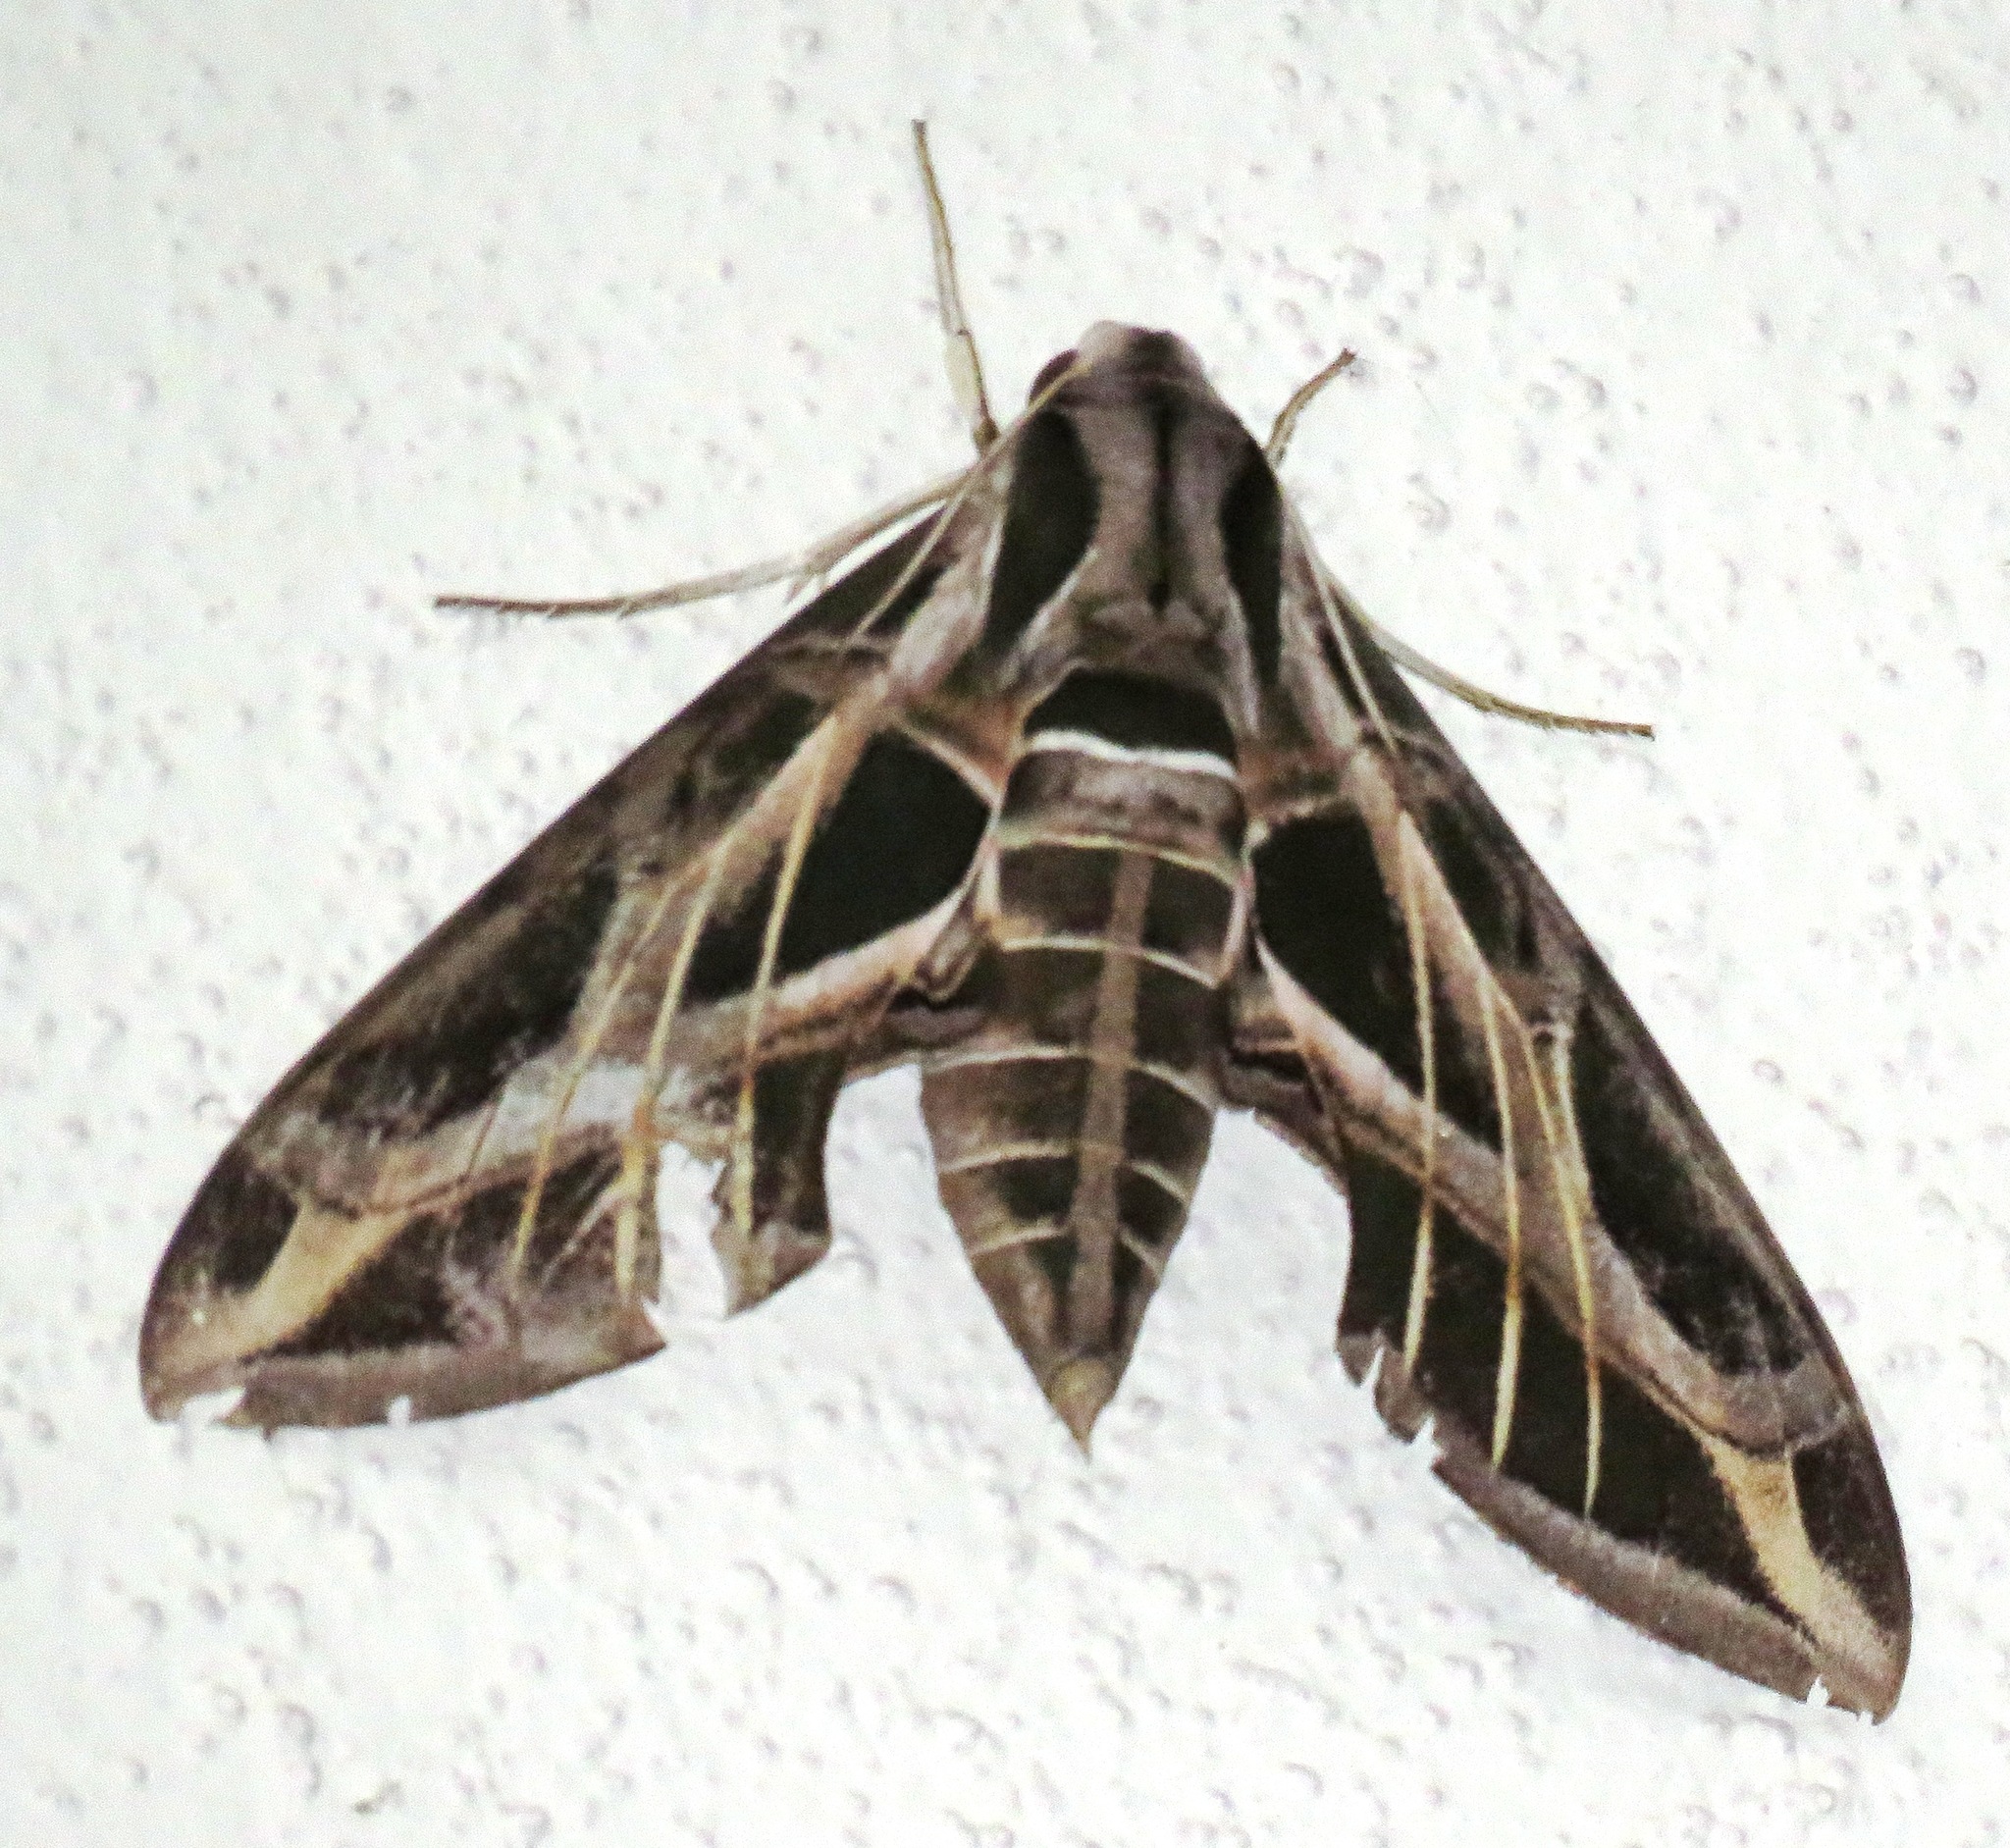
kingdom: Animalia
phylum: Arthropoda
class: Insecta
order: Lepidoptera
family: Sphingidae
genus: Eumorpha
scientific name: Eumorpha vitis
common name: Vine sphinx
